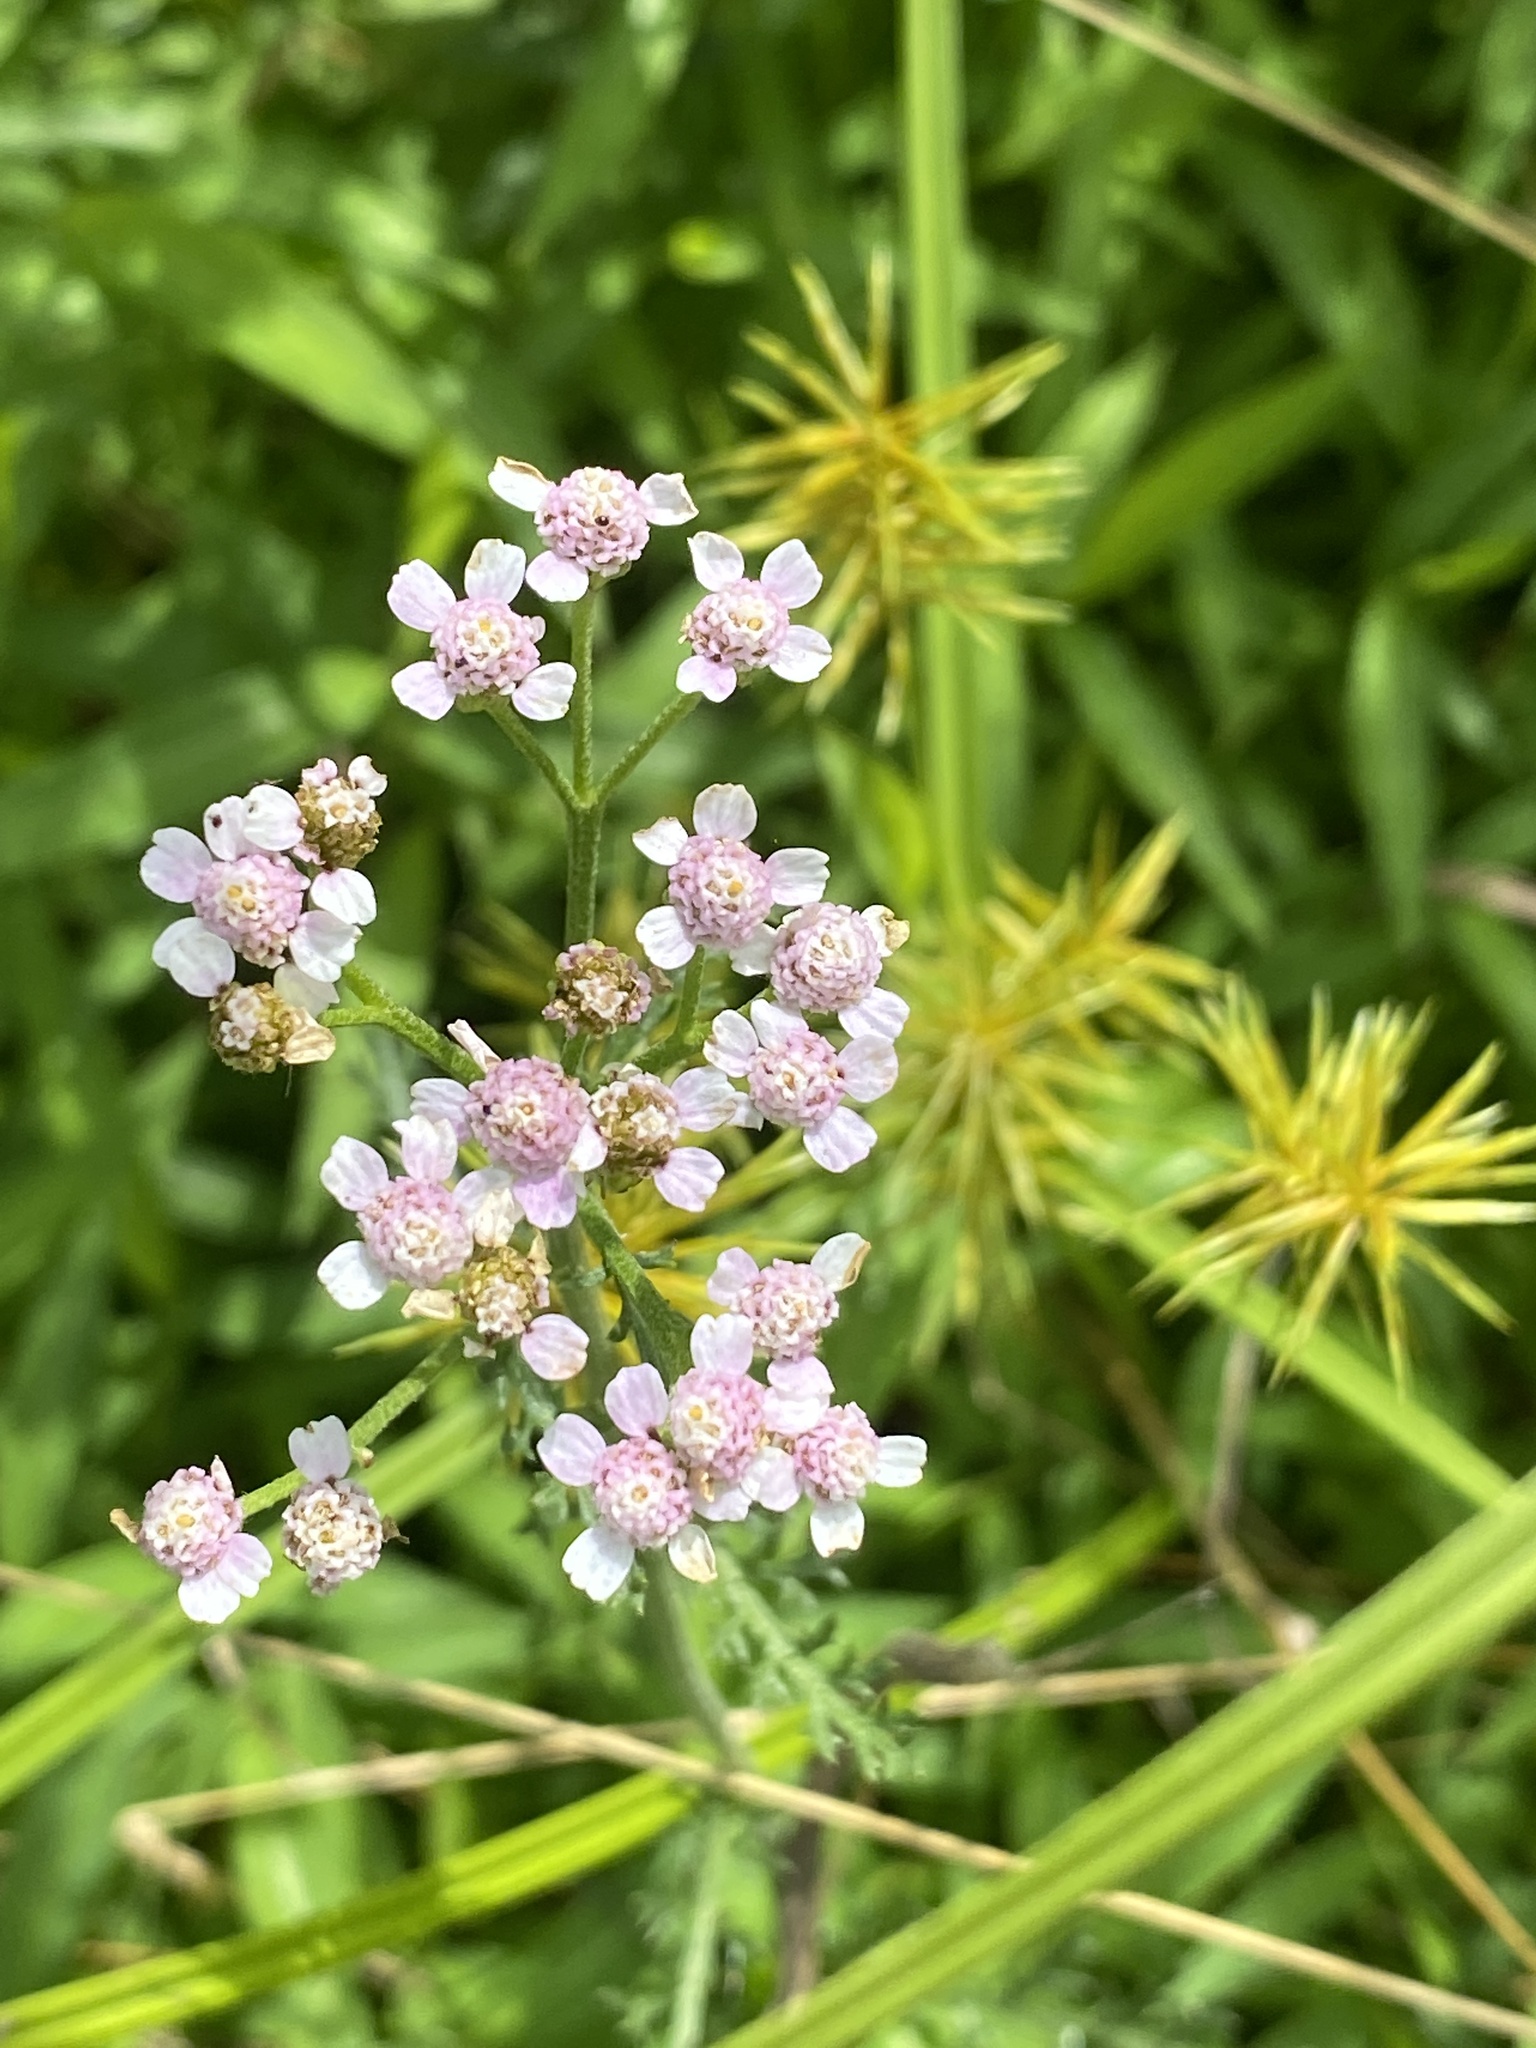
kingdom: Plantae
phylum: Tracheophyta
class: Magnoliopsida
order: Asterales
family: Asteraceae
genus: Achillea
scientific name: Achillea millefolium
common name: Yarrow
